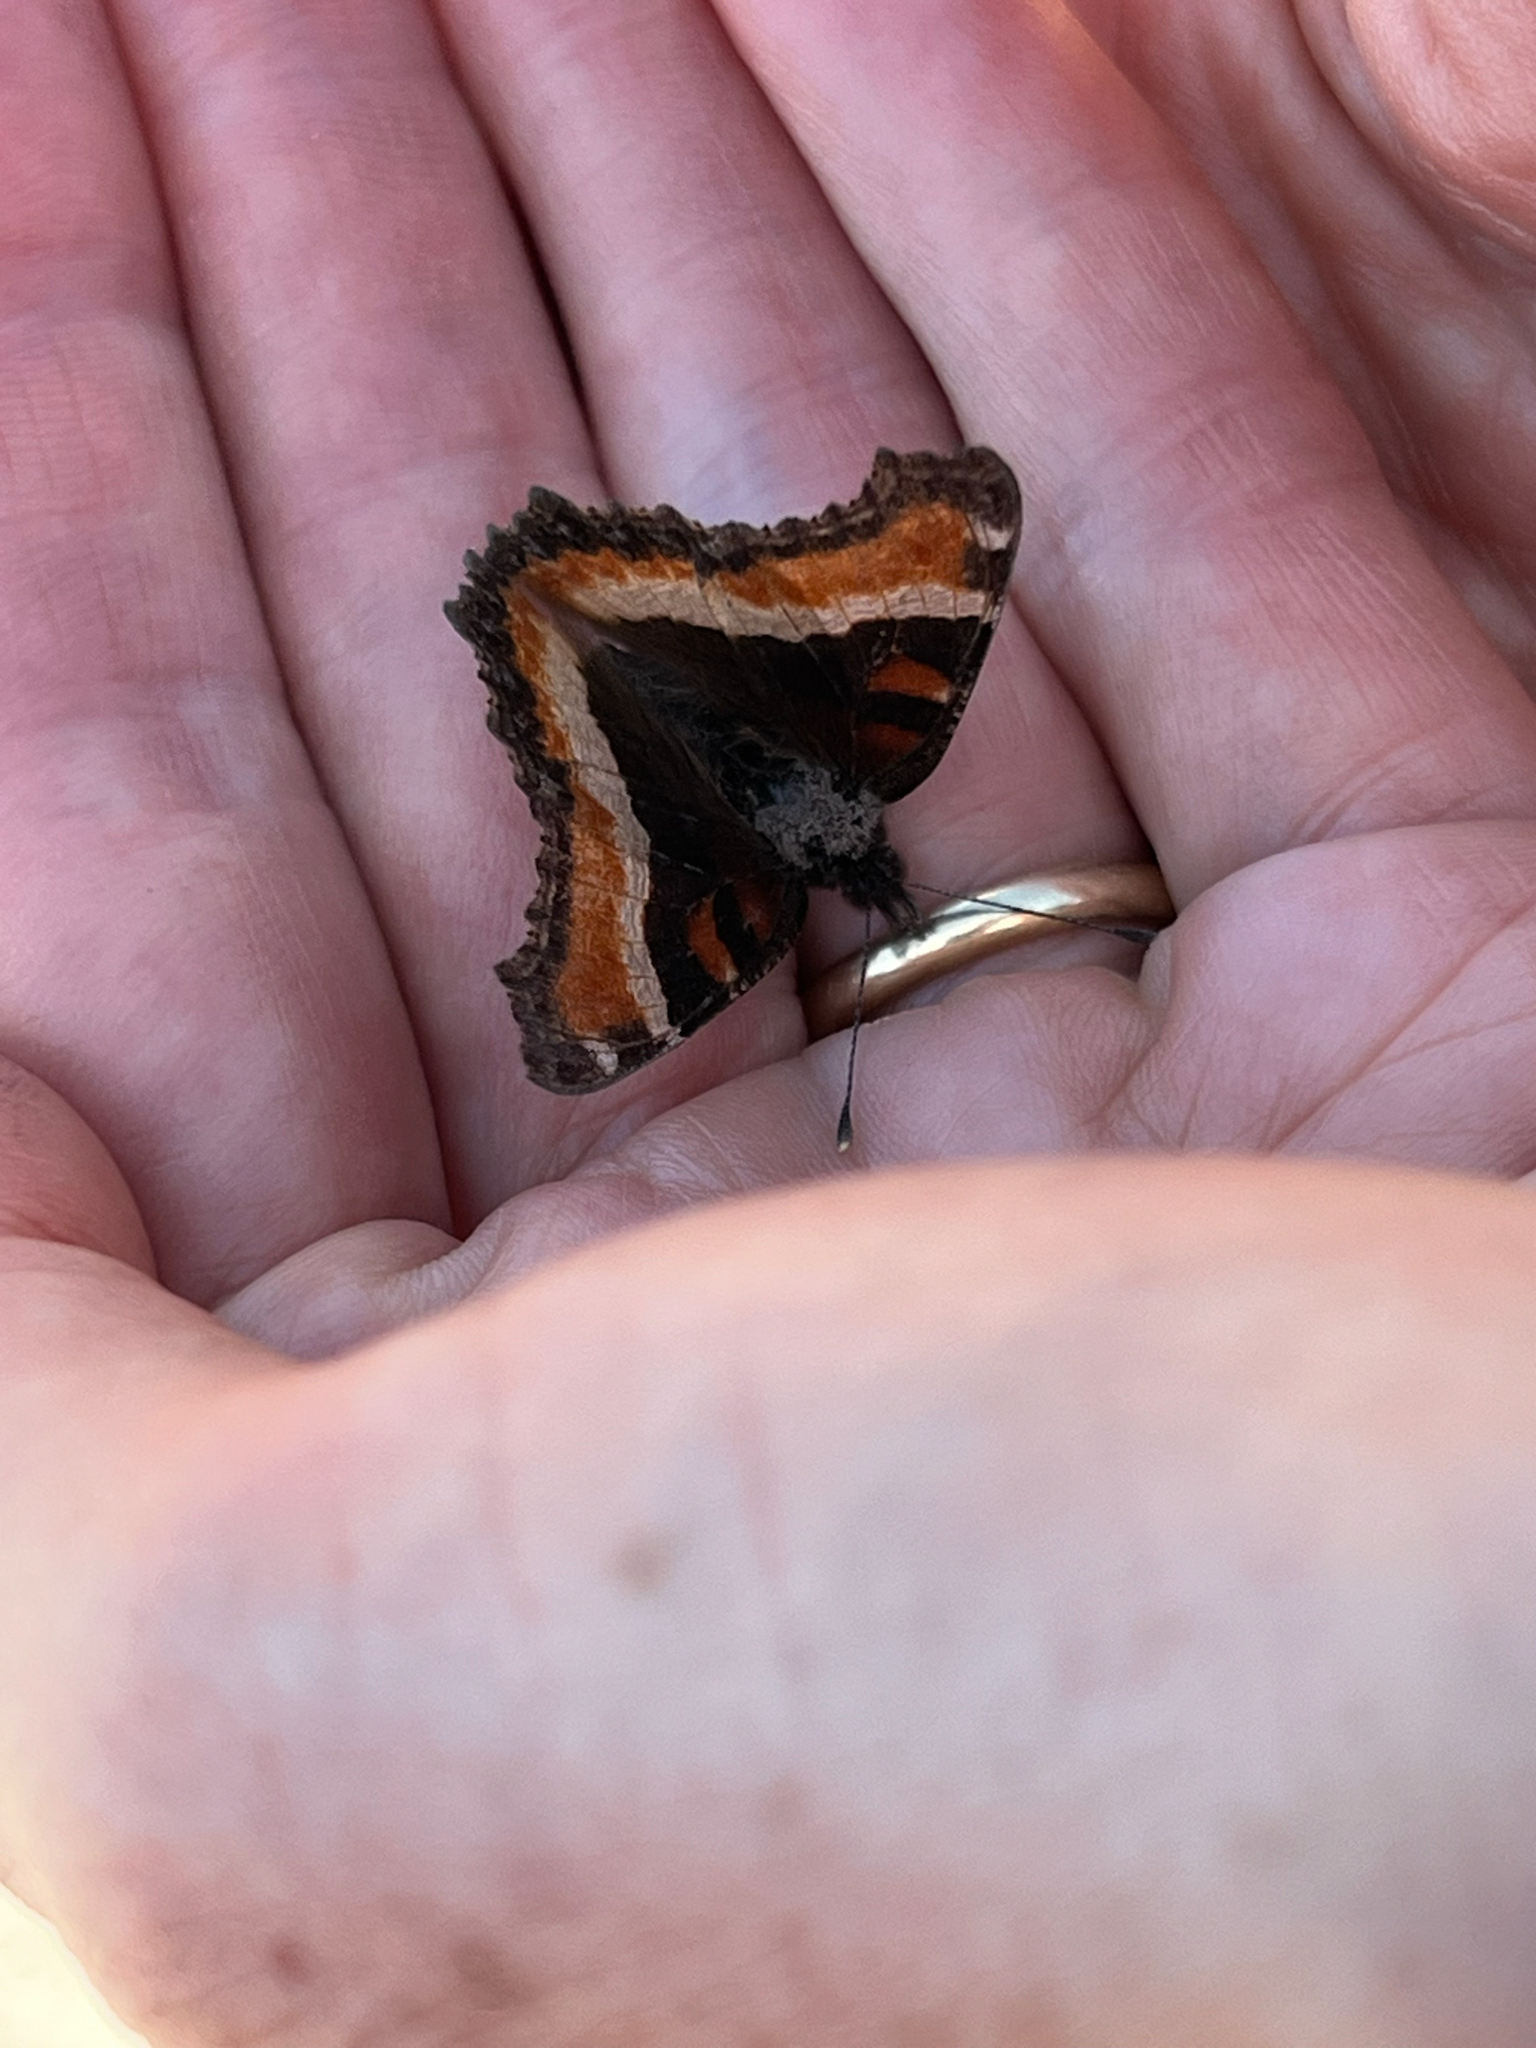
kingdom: Animalia
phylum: Arthropoda
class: Insecta
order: Lepidoptera
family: Nymphalidae
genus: Aglais
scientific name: Aglais milberti
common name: Milbert's tortoiseshell
